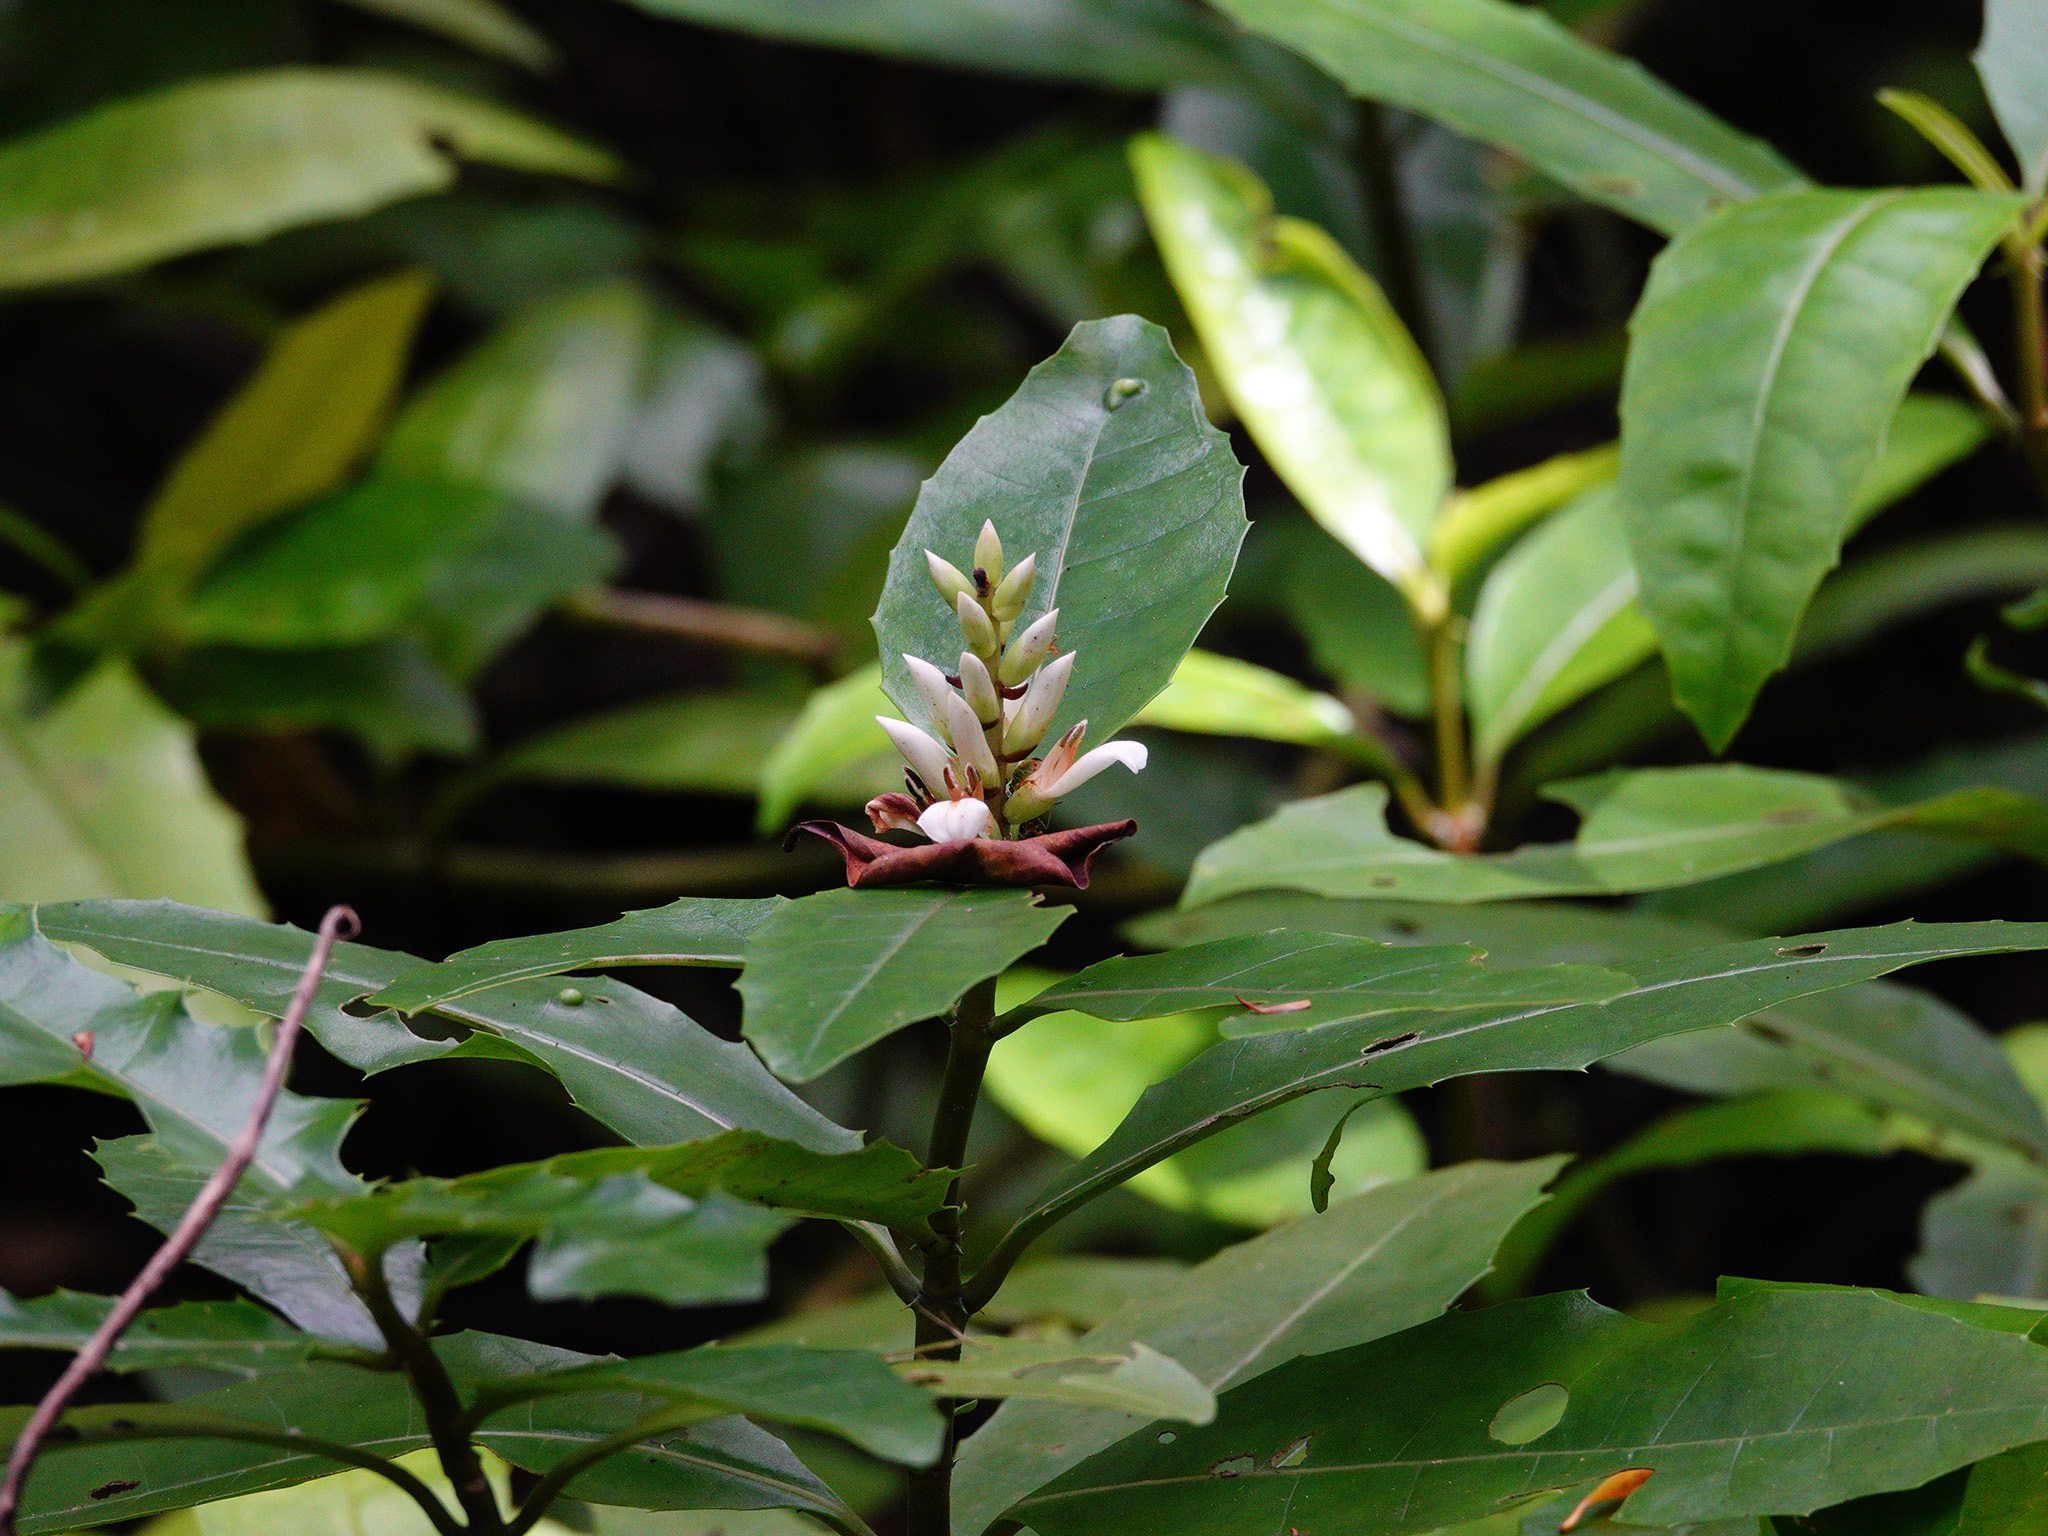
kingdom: Plantae
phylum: Tracheophyta
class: Magnoliopsida
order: Lamiales
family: Acanthaceae
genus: Acanthus
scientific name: Acanthus ilicifolius
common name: Holy mangrove
